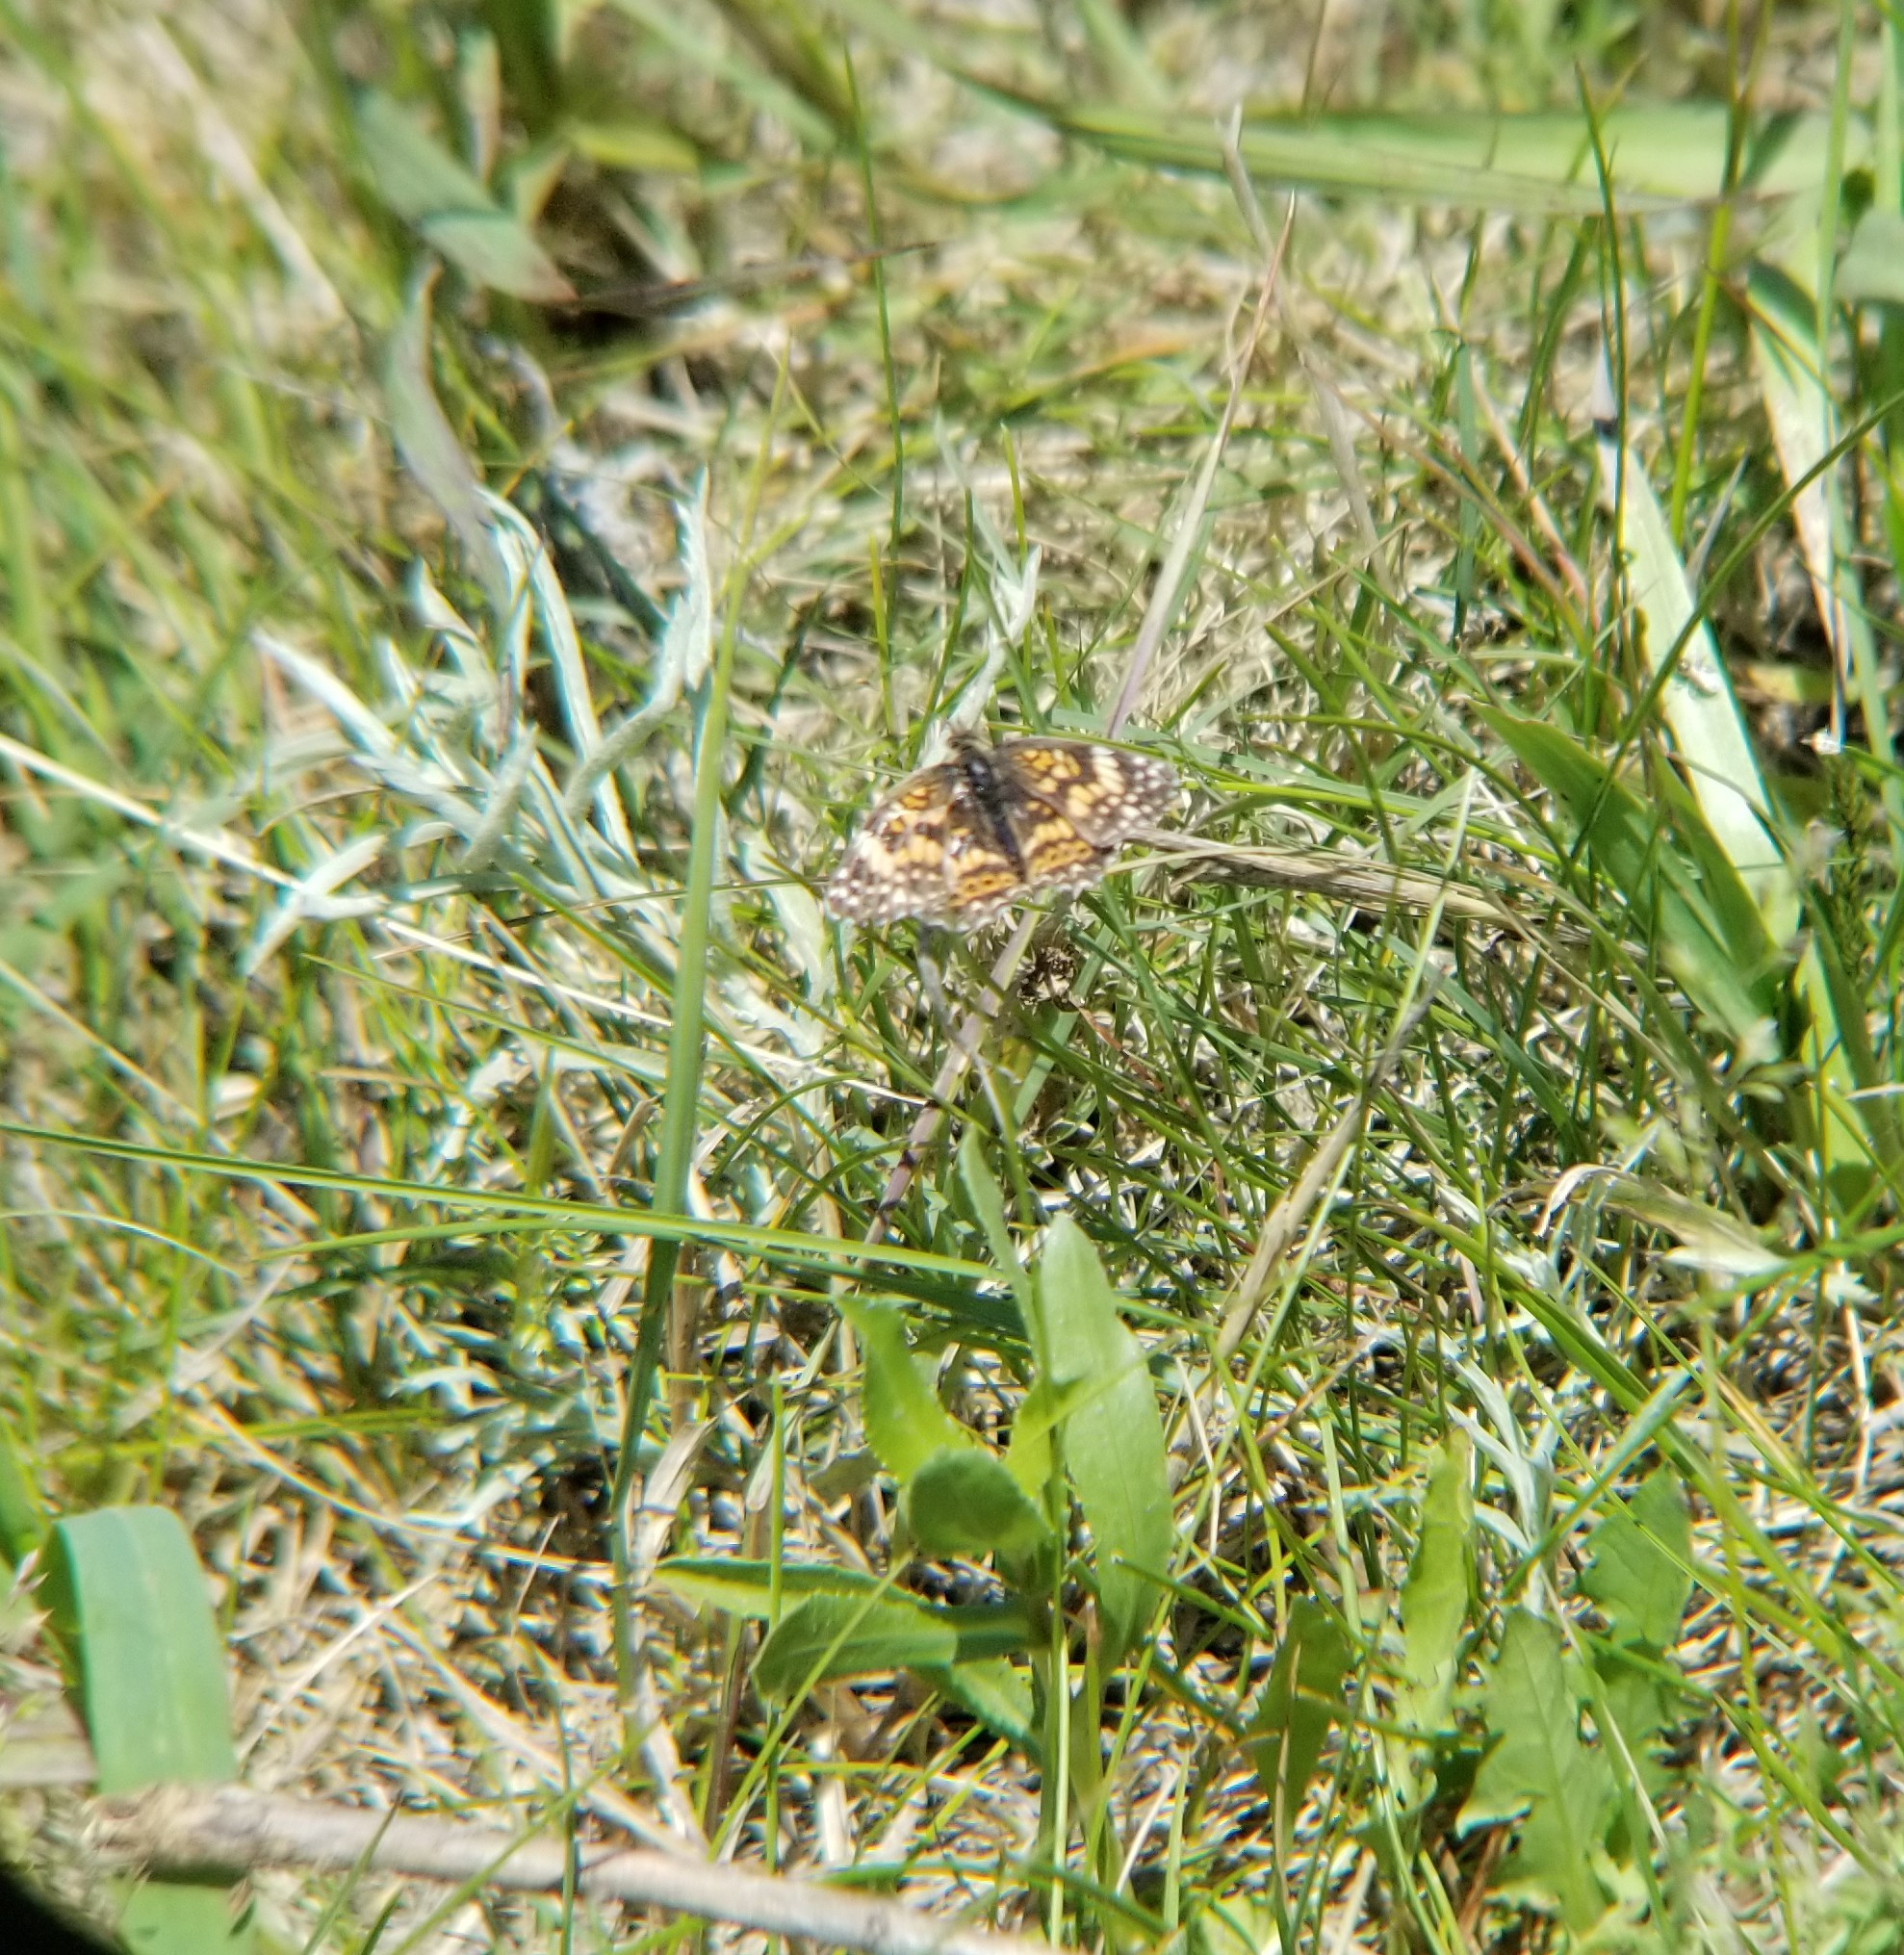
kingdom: Animalia
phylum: Arthropoda
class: Insecta
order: Lepidoptera
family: Nymphalidae
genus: Chlosyne
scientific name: Chlosyne gorgone
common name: Gorgone checkerspot
